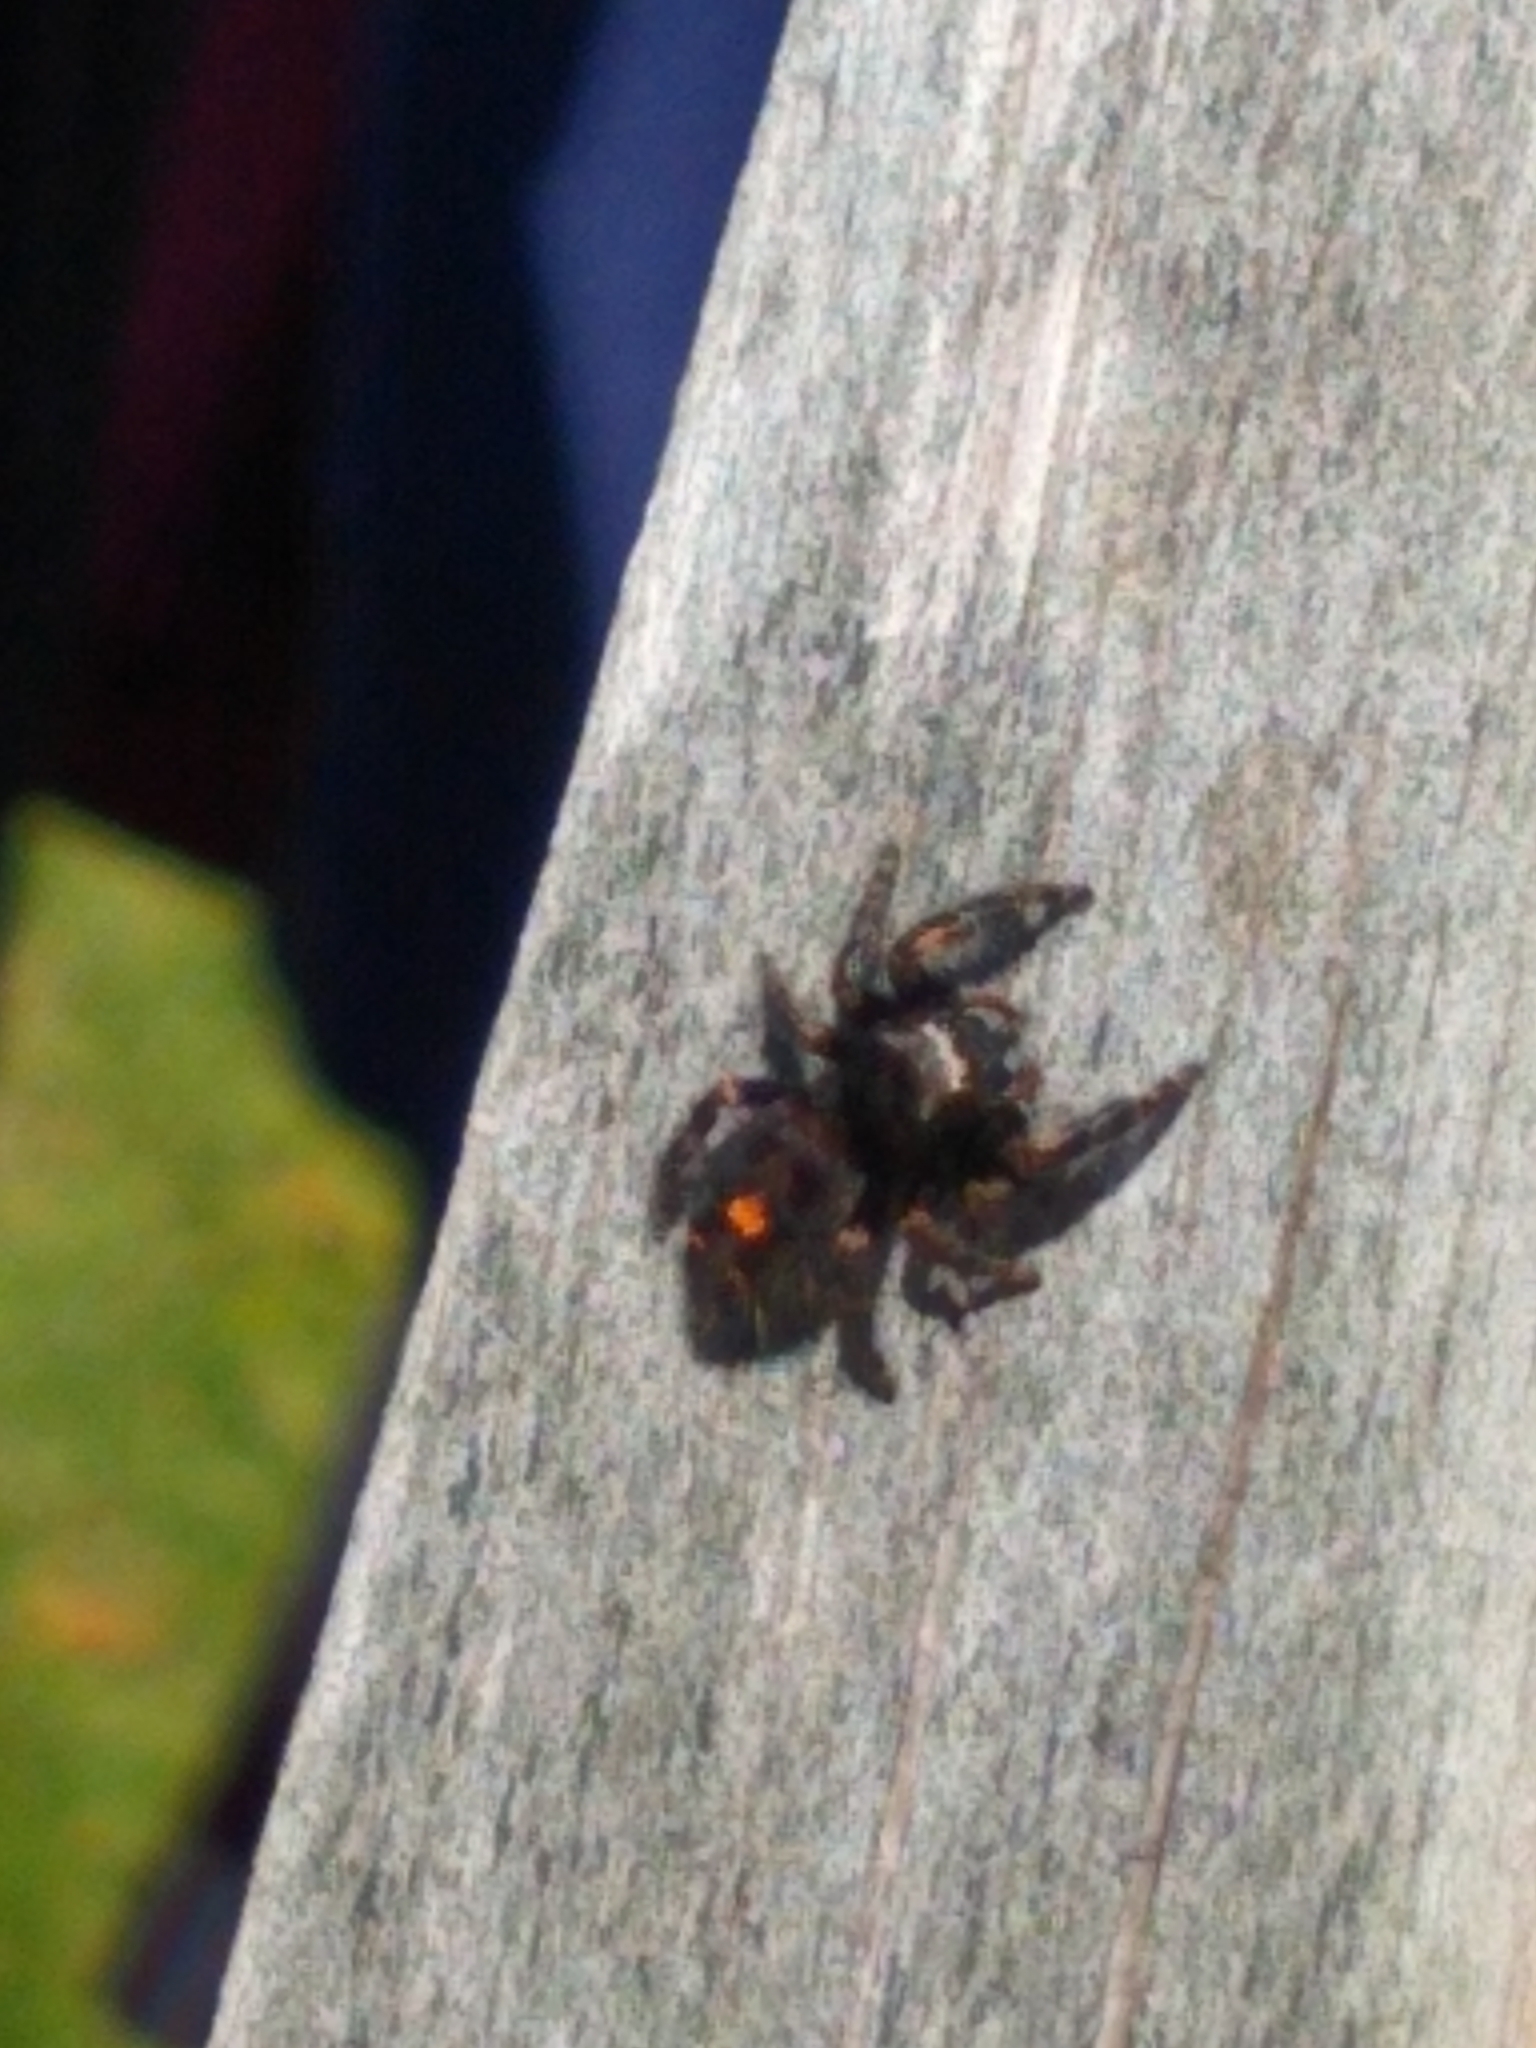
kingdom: Animalia
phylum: Arthropoda
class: Arachnida
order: Araneae
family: Salticidae
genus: Phidippus
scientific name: Phidippus audax
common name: Bold jumper
